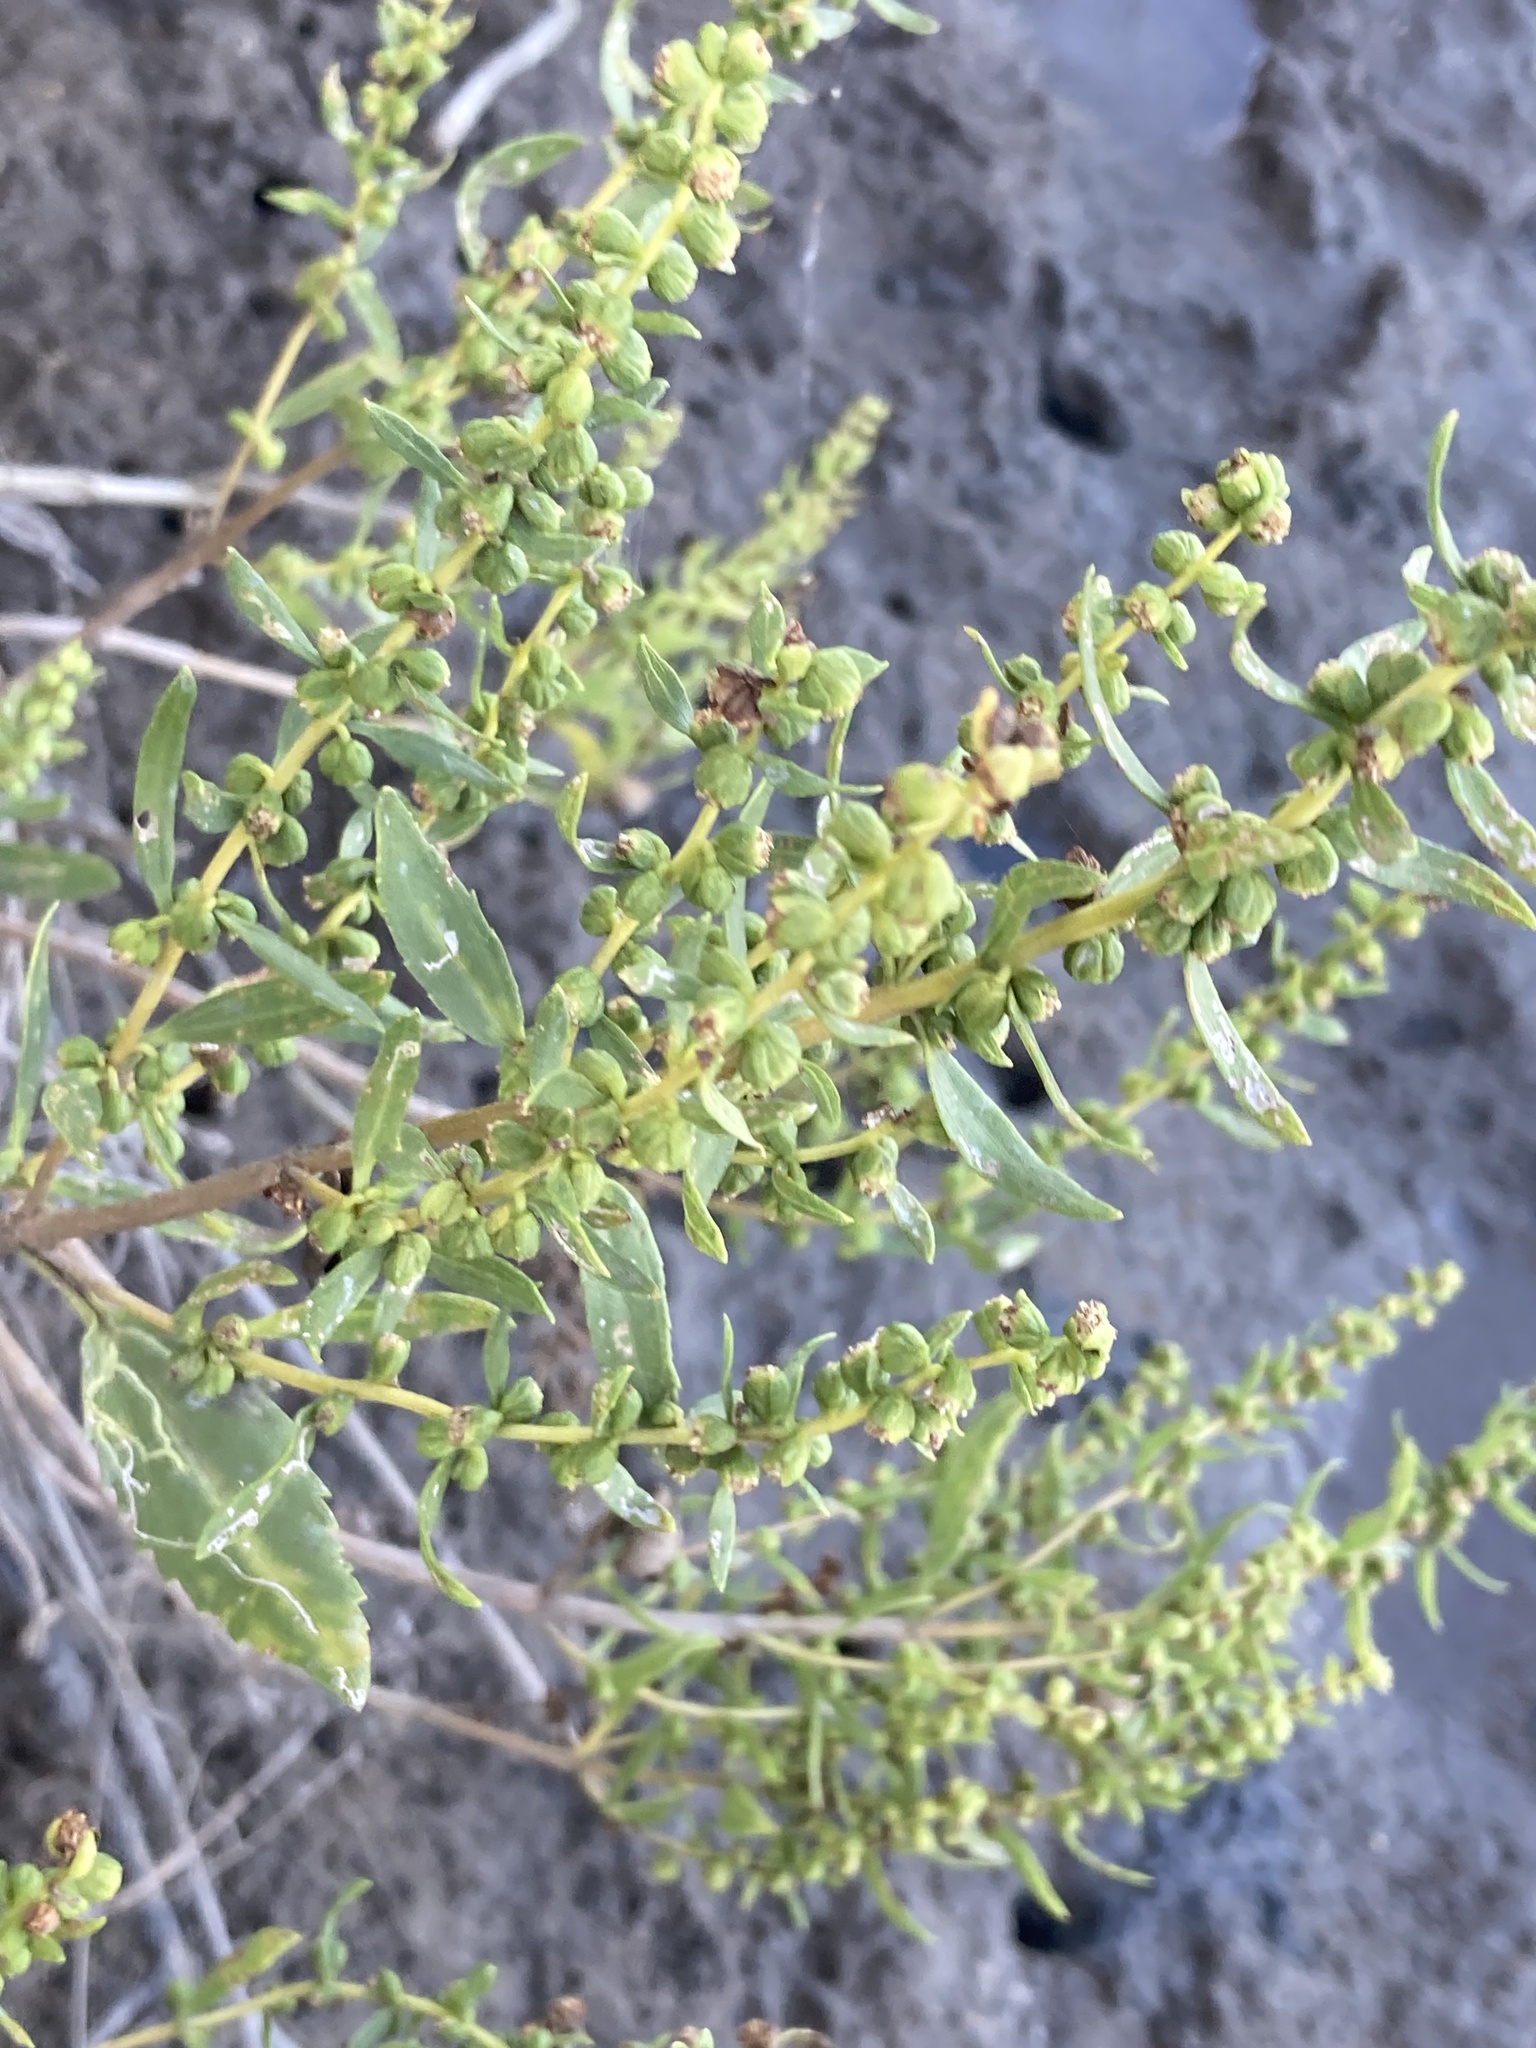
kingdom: Plantae
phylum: Tracheophyta
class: Magnoliopsida
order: Asterales
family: Asteraceae
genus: Iva
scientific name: Iva frutescens
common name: Big-leaved marsh-elder
